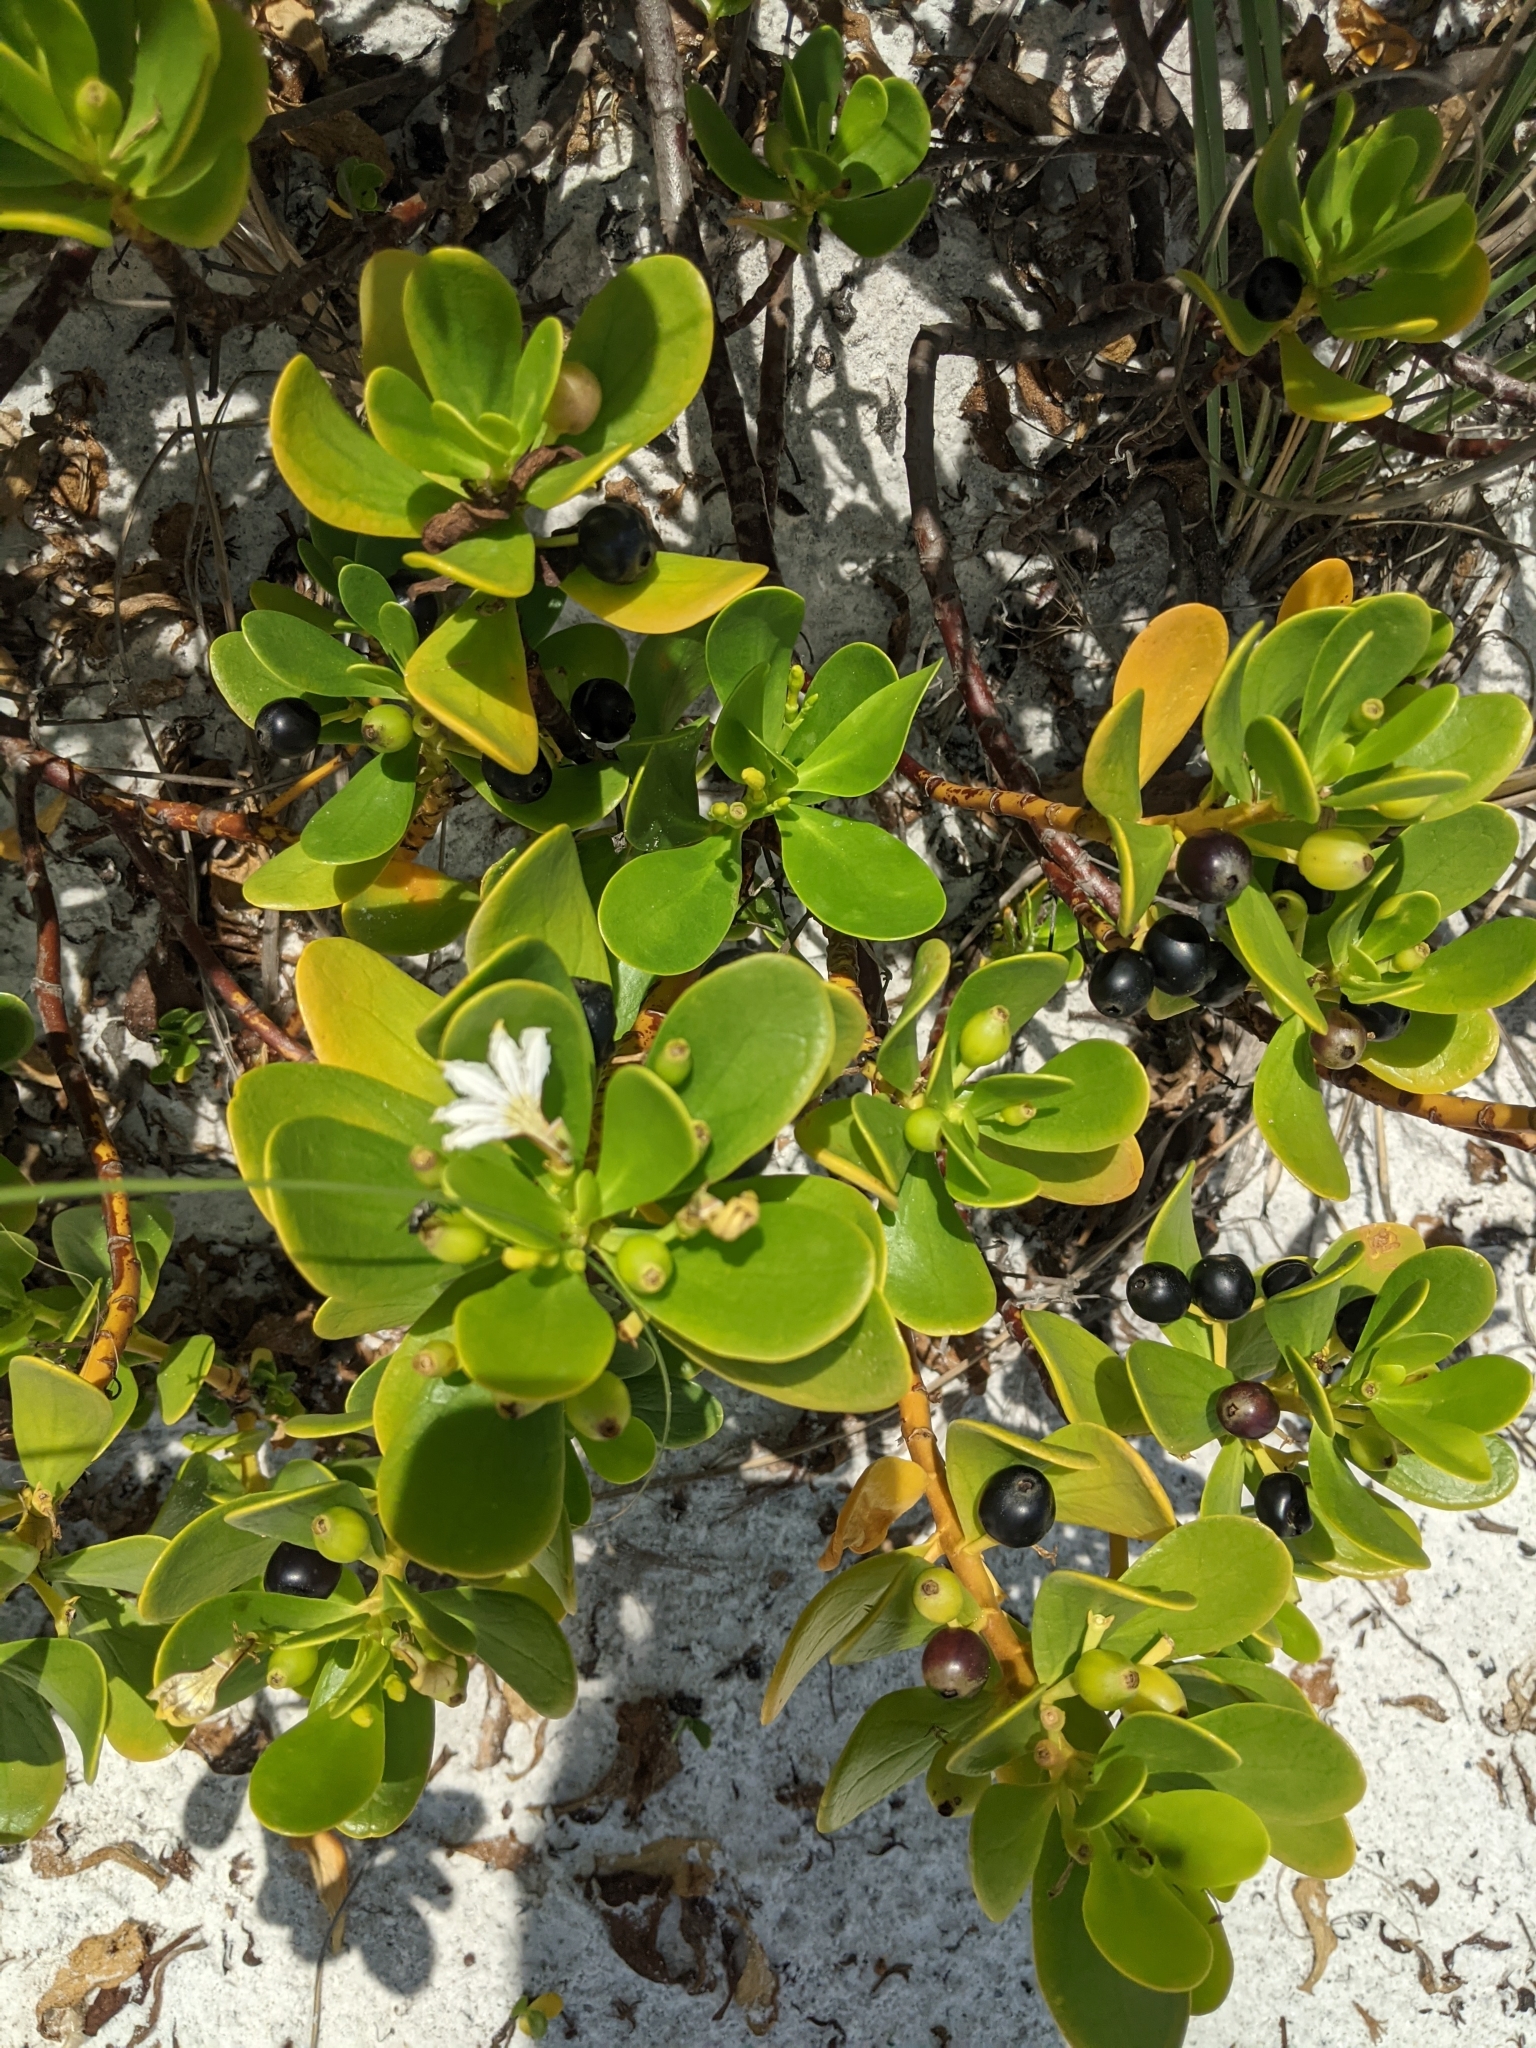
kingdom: Plantae
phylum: Tracheophyta
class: Magnoliopsida
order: Asterales
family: Goodeniaceae
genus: Scaevola
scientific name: Scaevola plumieri
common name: Gull feed
